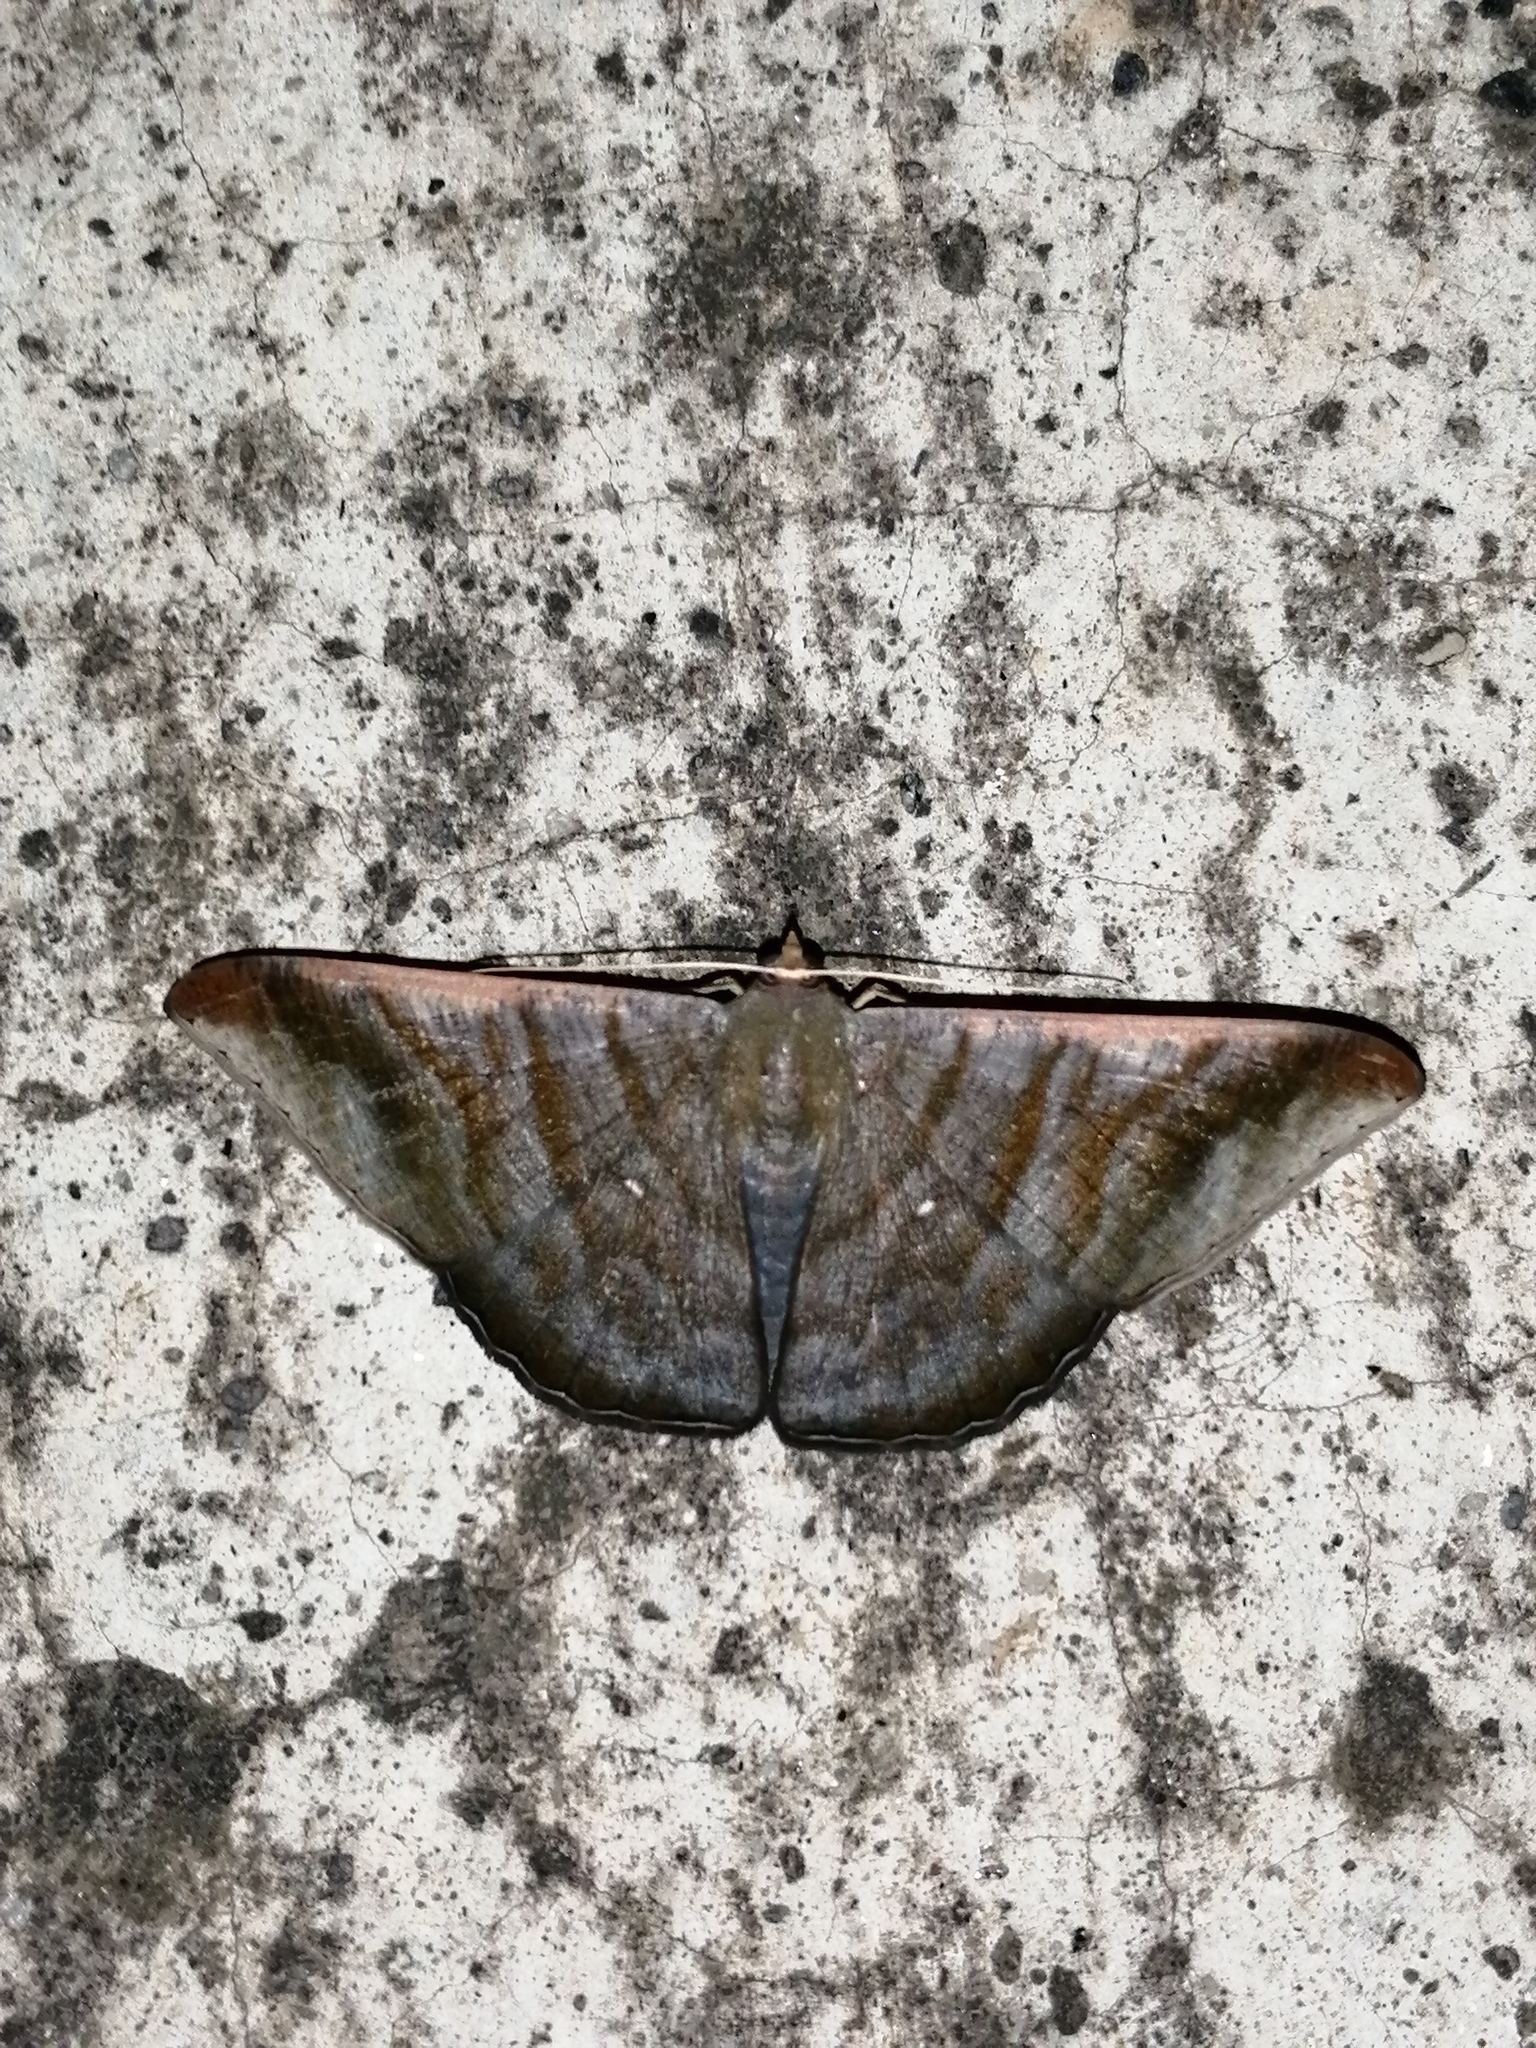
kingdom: Animalia
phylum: Arthropoda
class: Insecta
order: Lepidoptera
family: Geometridae
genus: Sphacelodes
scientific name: Sphacelodes vulneraria
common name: Looper moth
